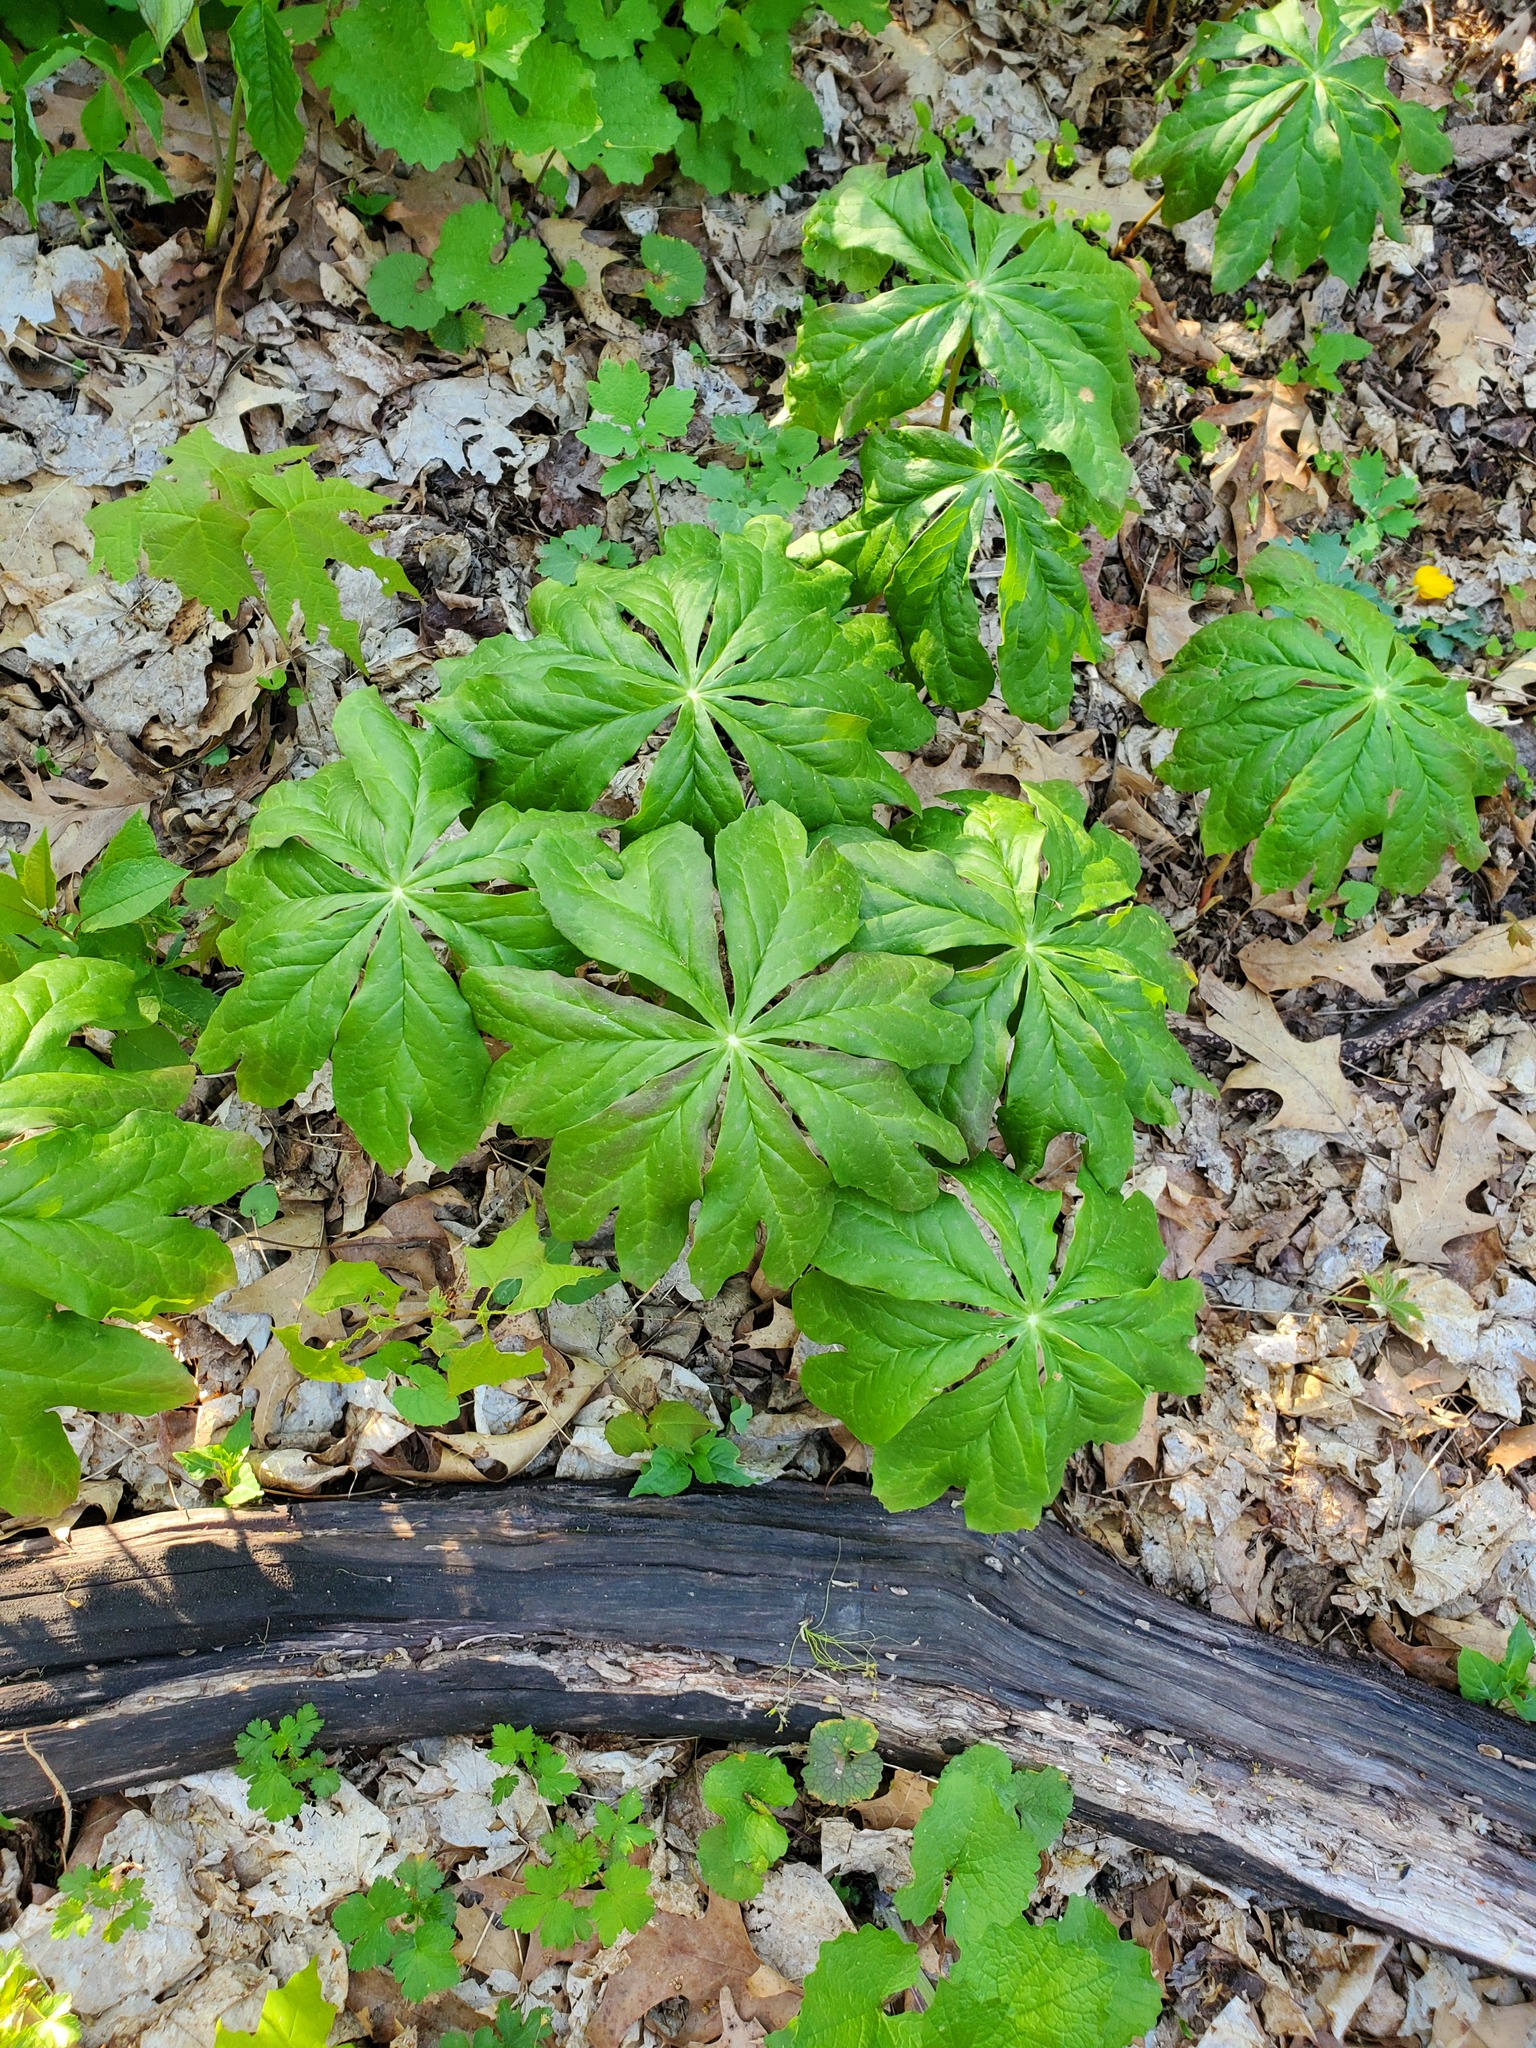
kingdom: Plantae
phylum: Tracheophyta
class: Magnoliopsida
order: Ranunculales
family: Berberidaceae
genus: Podophyllum
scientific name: Podophyllum peltatum
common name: Wild mandrake
